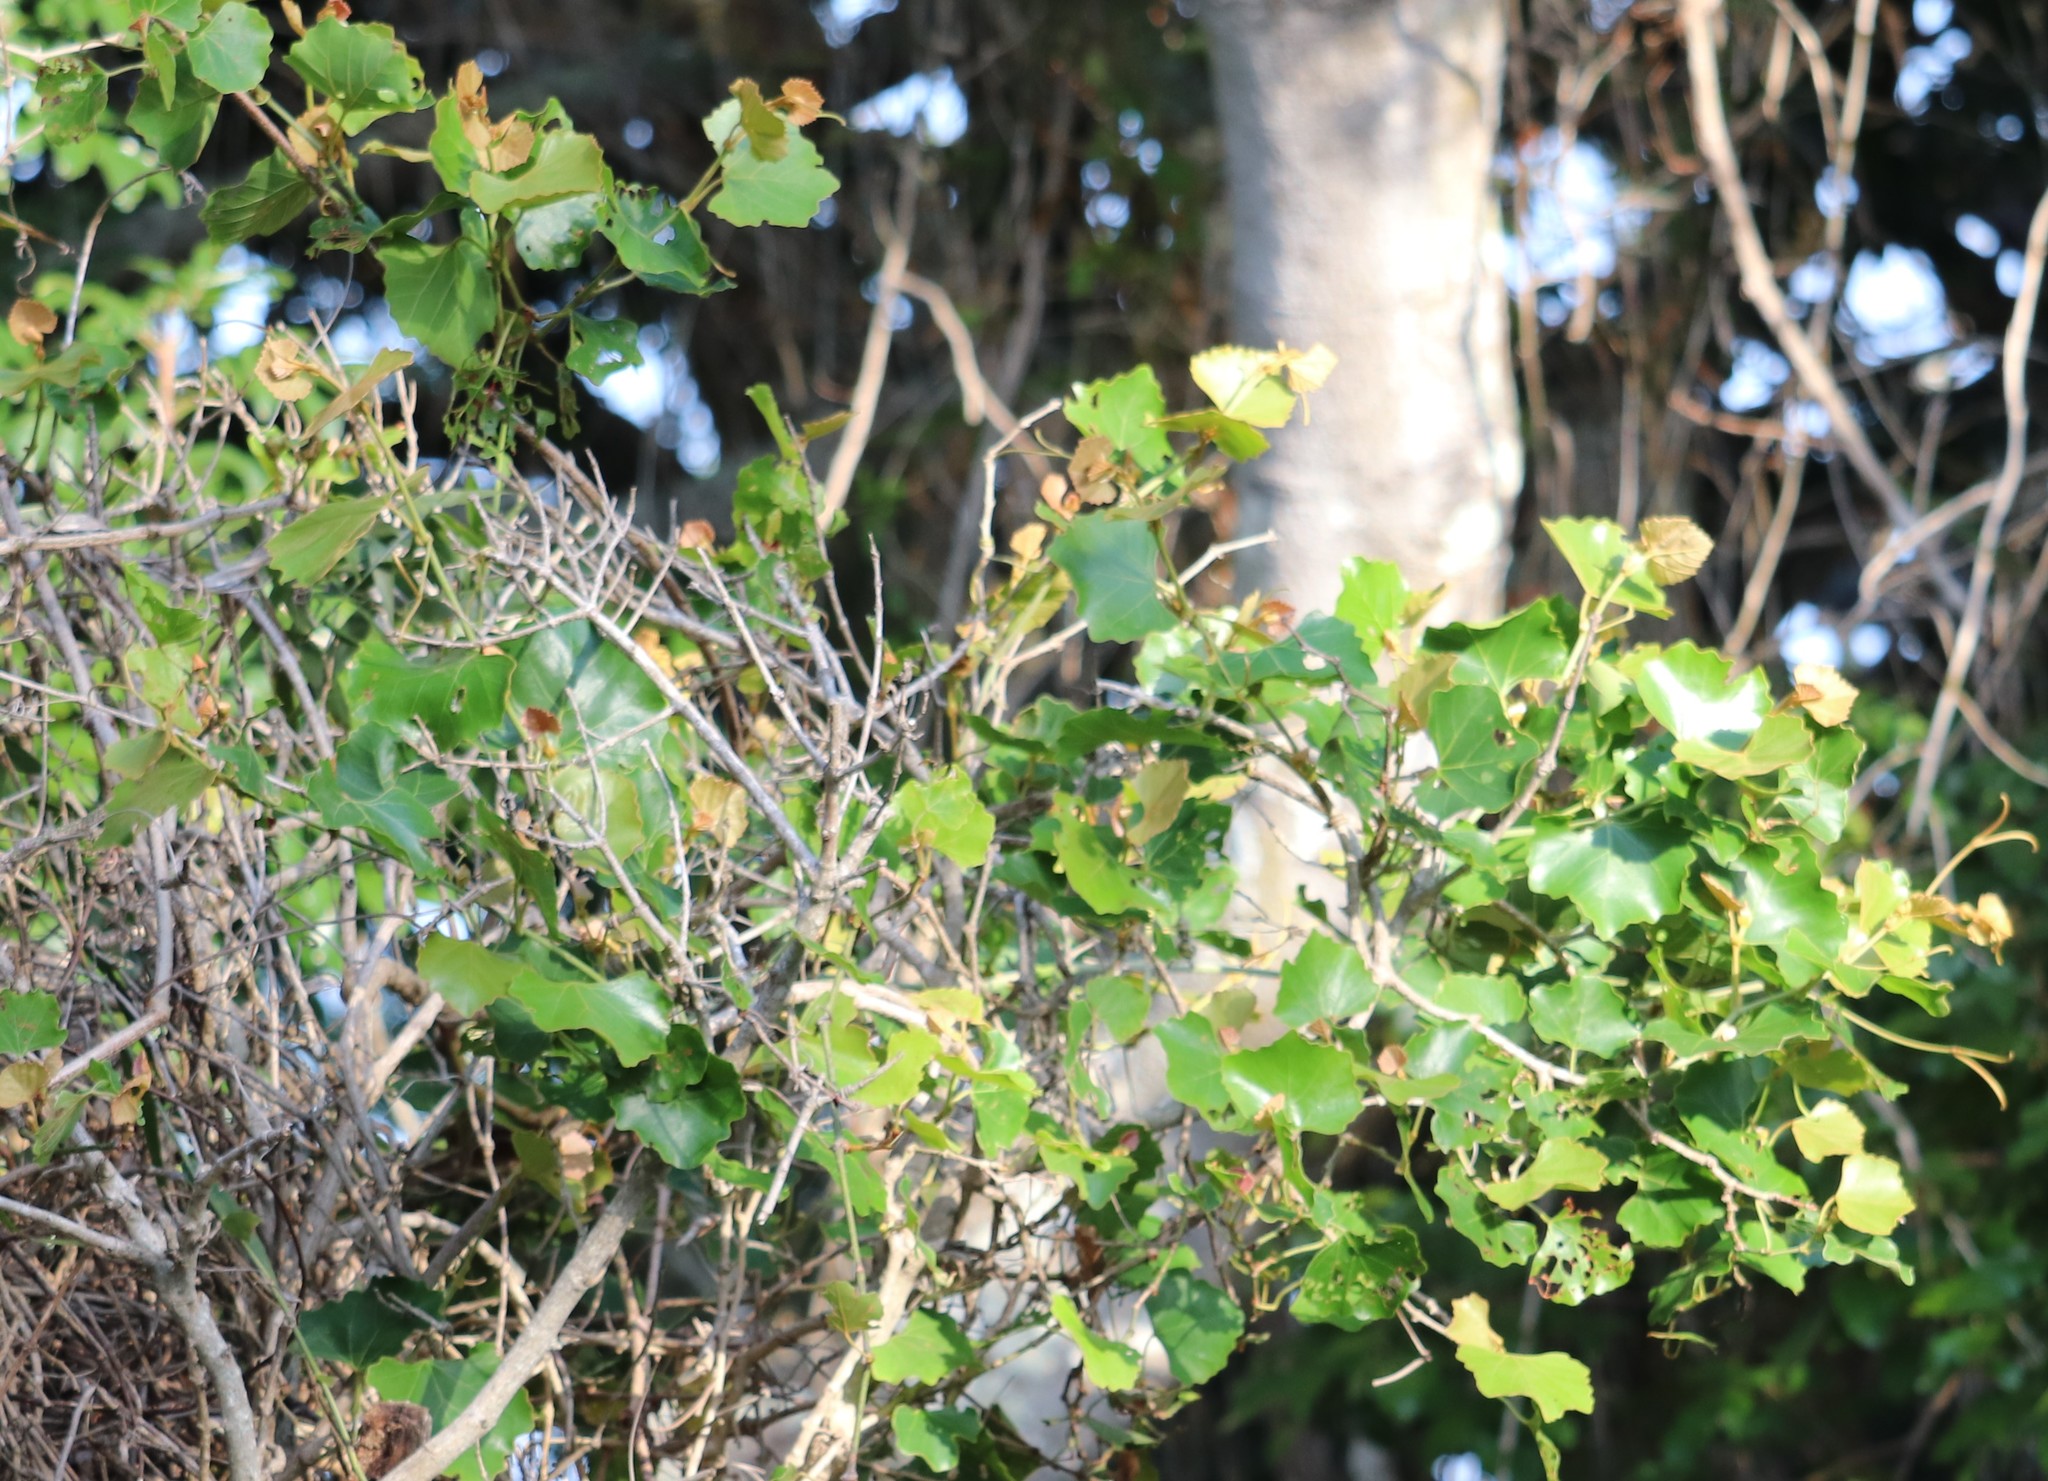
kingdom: Plantae
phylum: Tracheophyta
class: Magnoliopsida
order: Vitales
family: Vitaceae
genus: Rhoicissus
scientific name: Rhoicissus tomentosa
